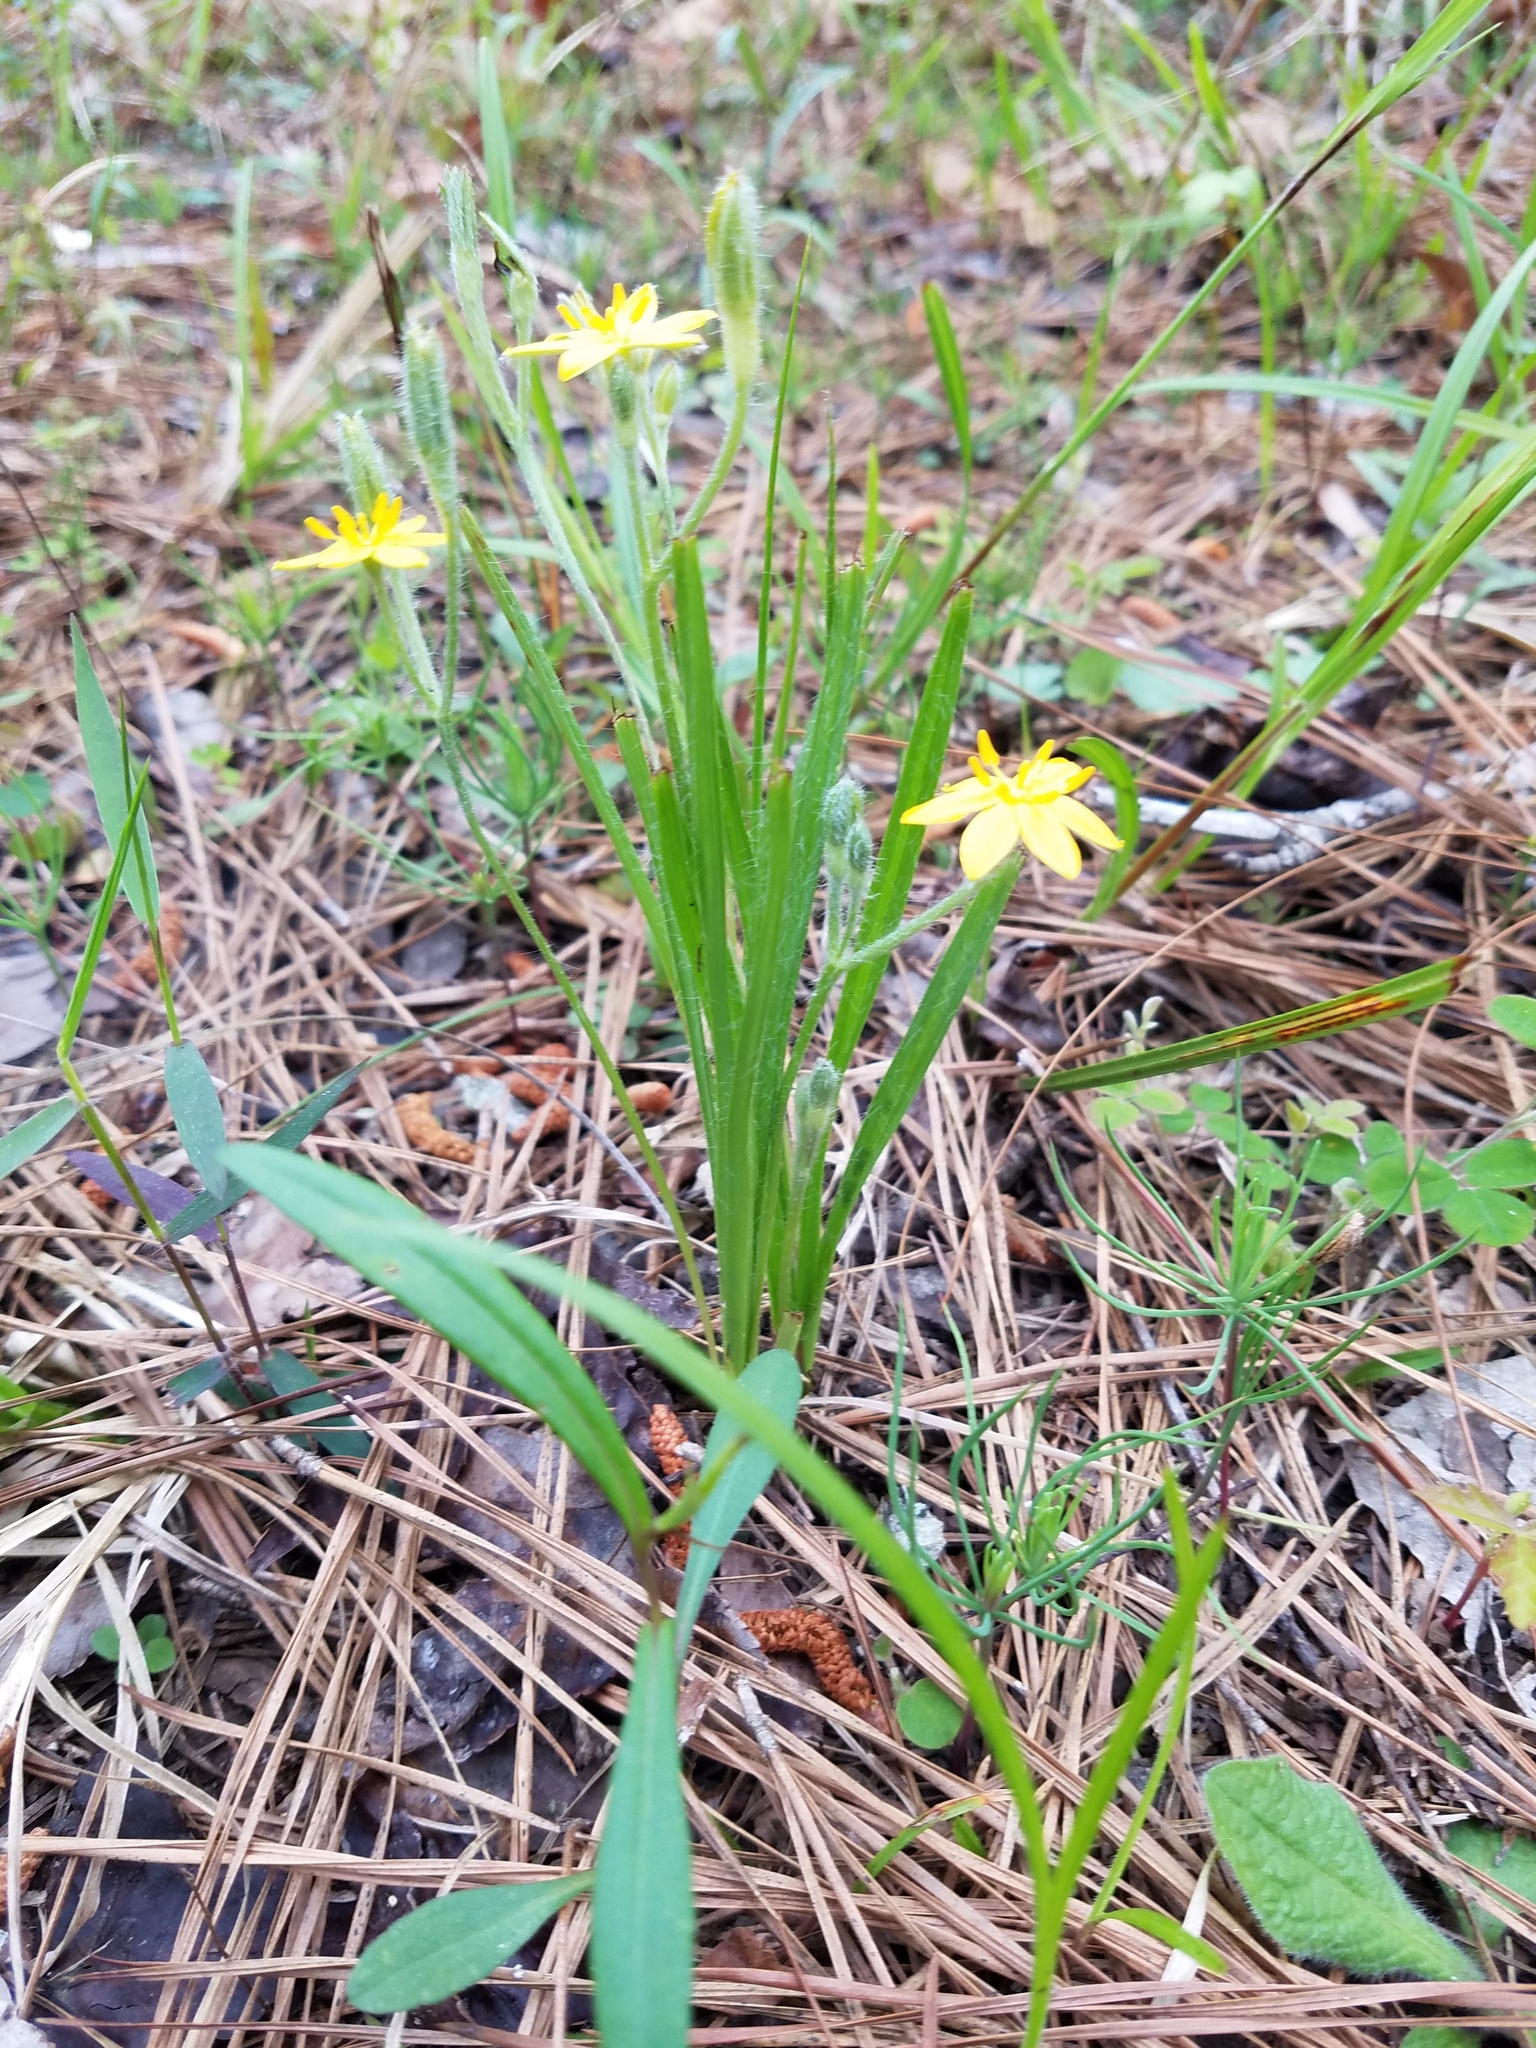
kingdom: Plantae
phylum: Tracheophyta
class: Liliopsida
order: Asparagales
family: Hypoxidaceae
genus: Hypoxis
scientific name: Hypoxis hirsuta
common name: Common goldstar
